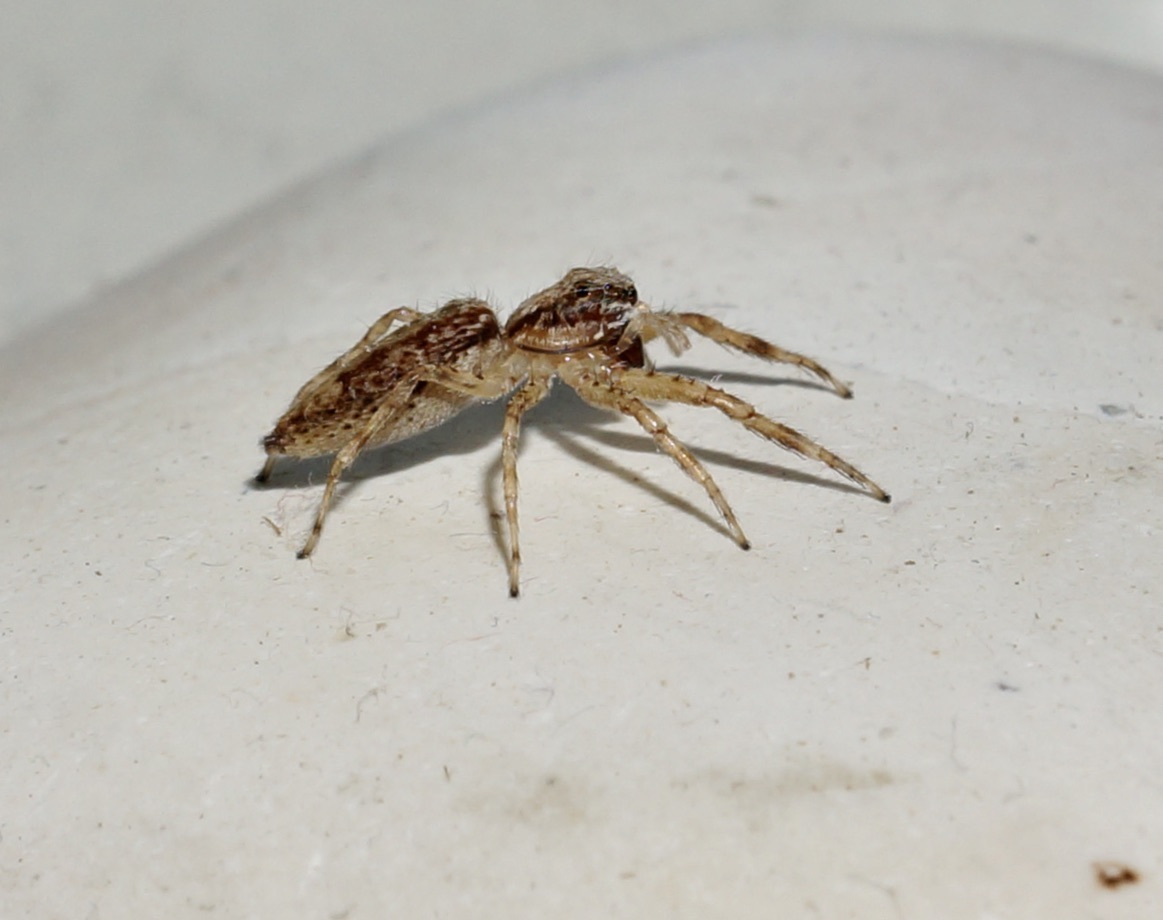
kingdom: Animalia
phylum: Arthropoda
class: Arachnida
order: Araneae
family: Salticidae
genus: Helpis
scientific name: Helpis minitabunda
